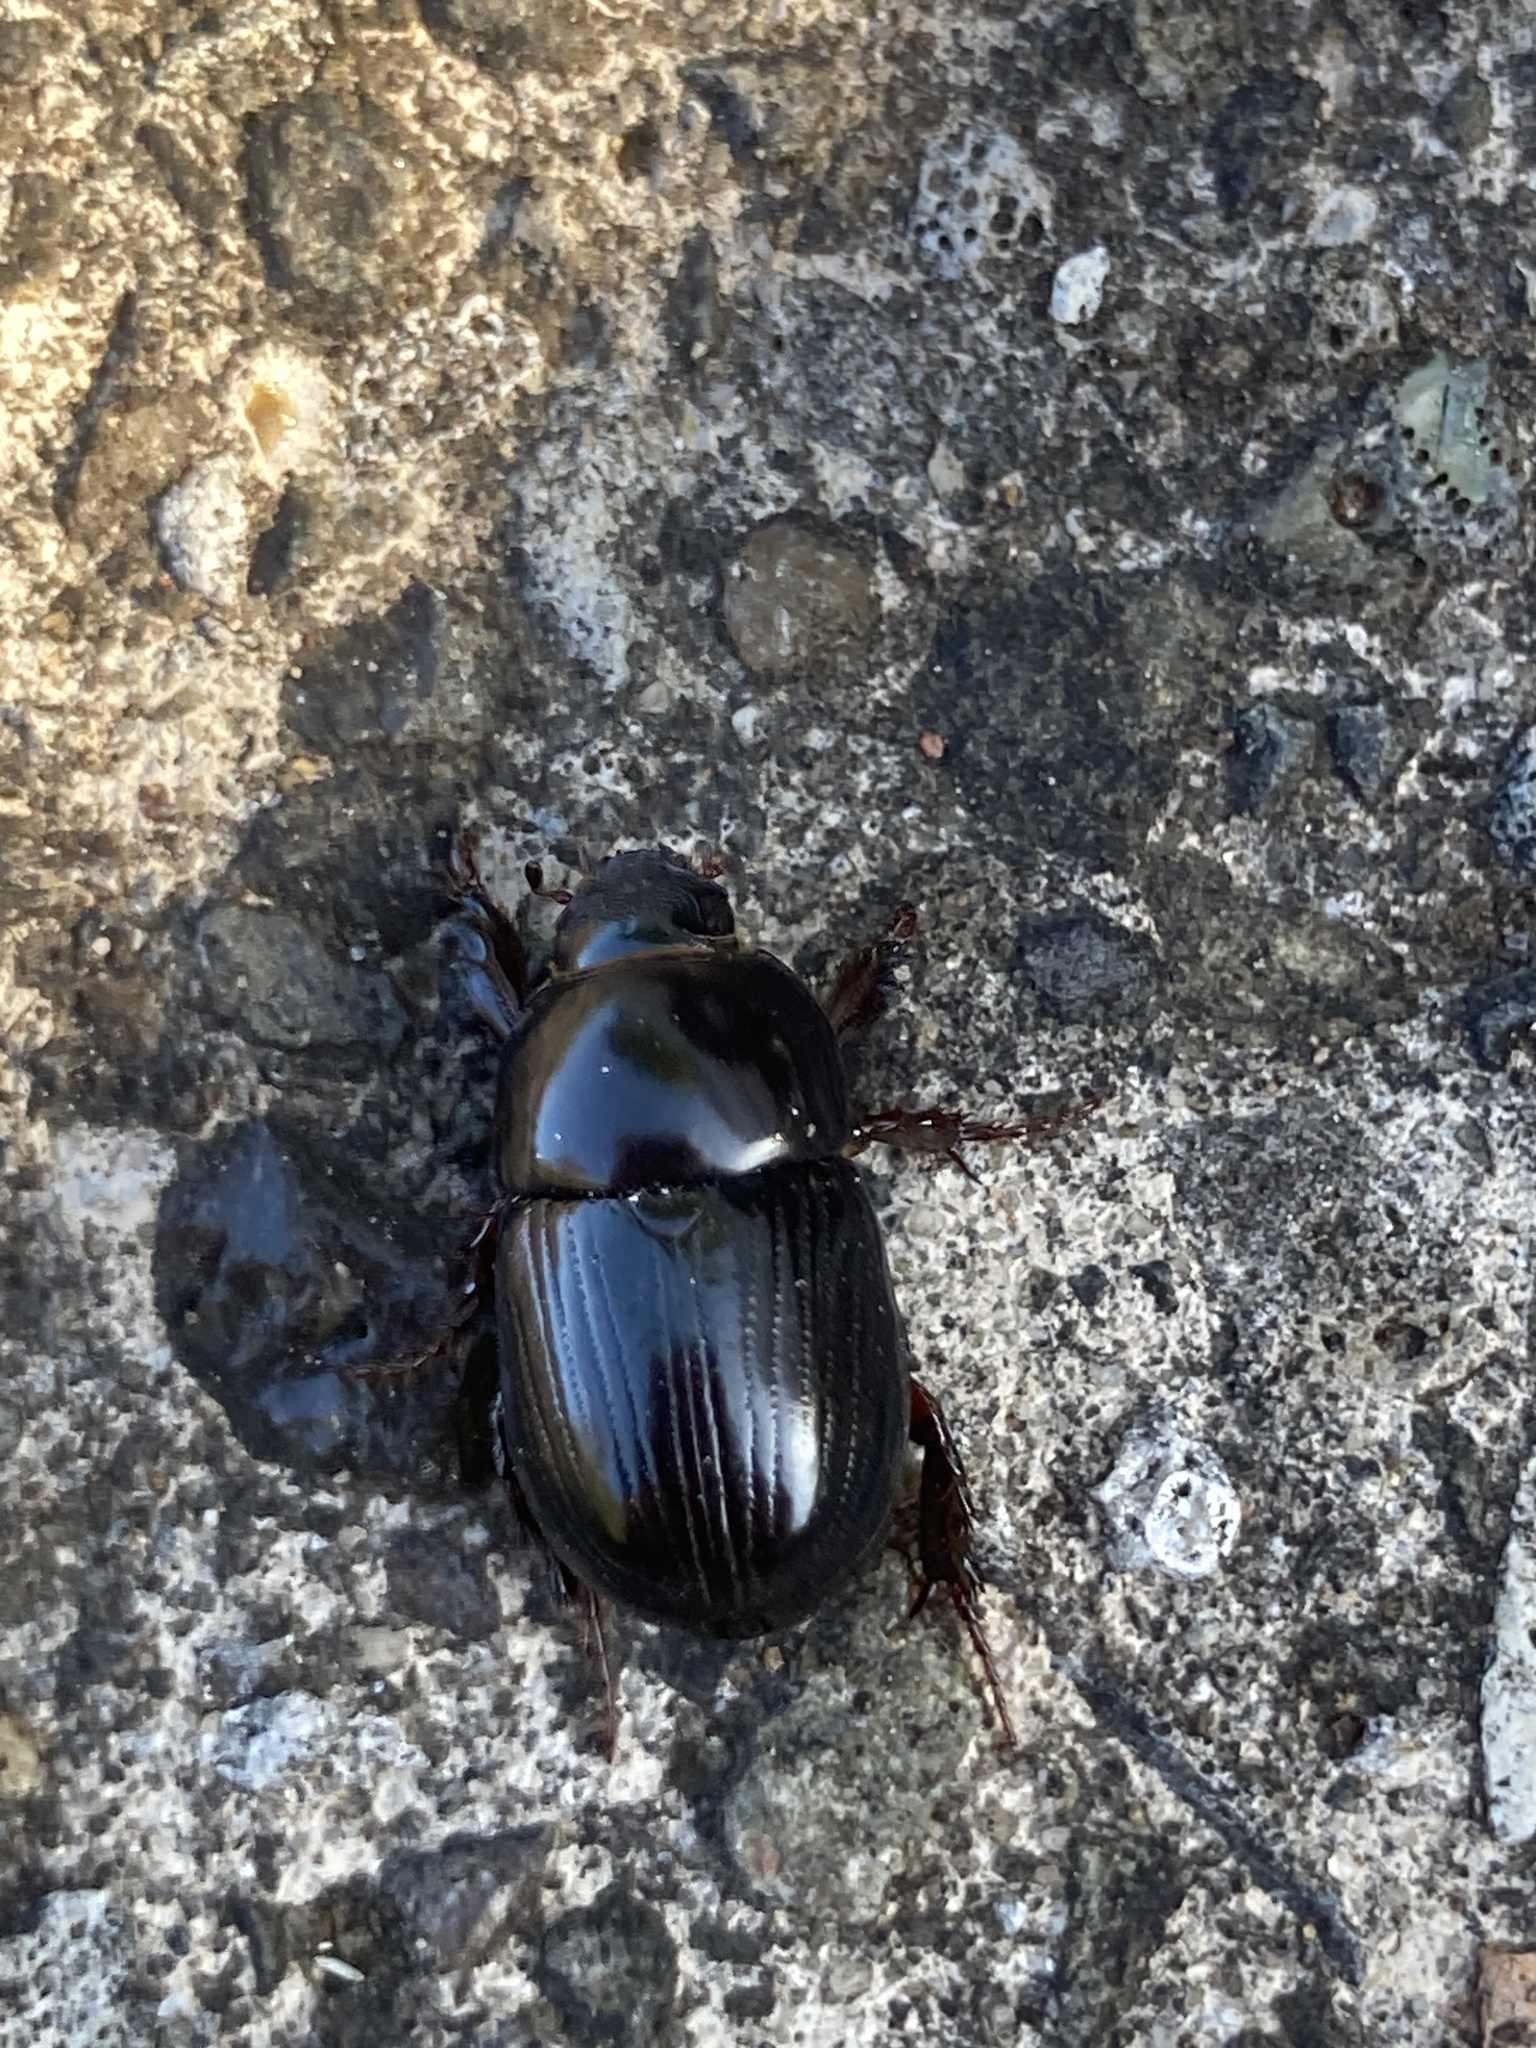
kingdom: Animalia
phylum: Arthropoda
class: Insecta
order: Coleoptera
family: Scarabaeidae
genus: Heteronychus
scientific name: Heteronychus arator
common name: African black beetle
